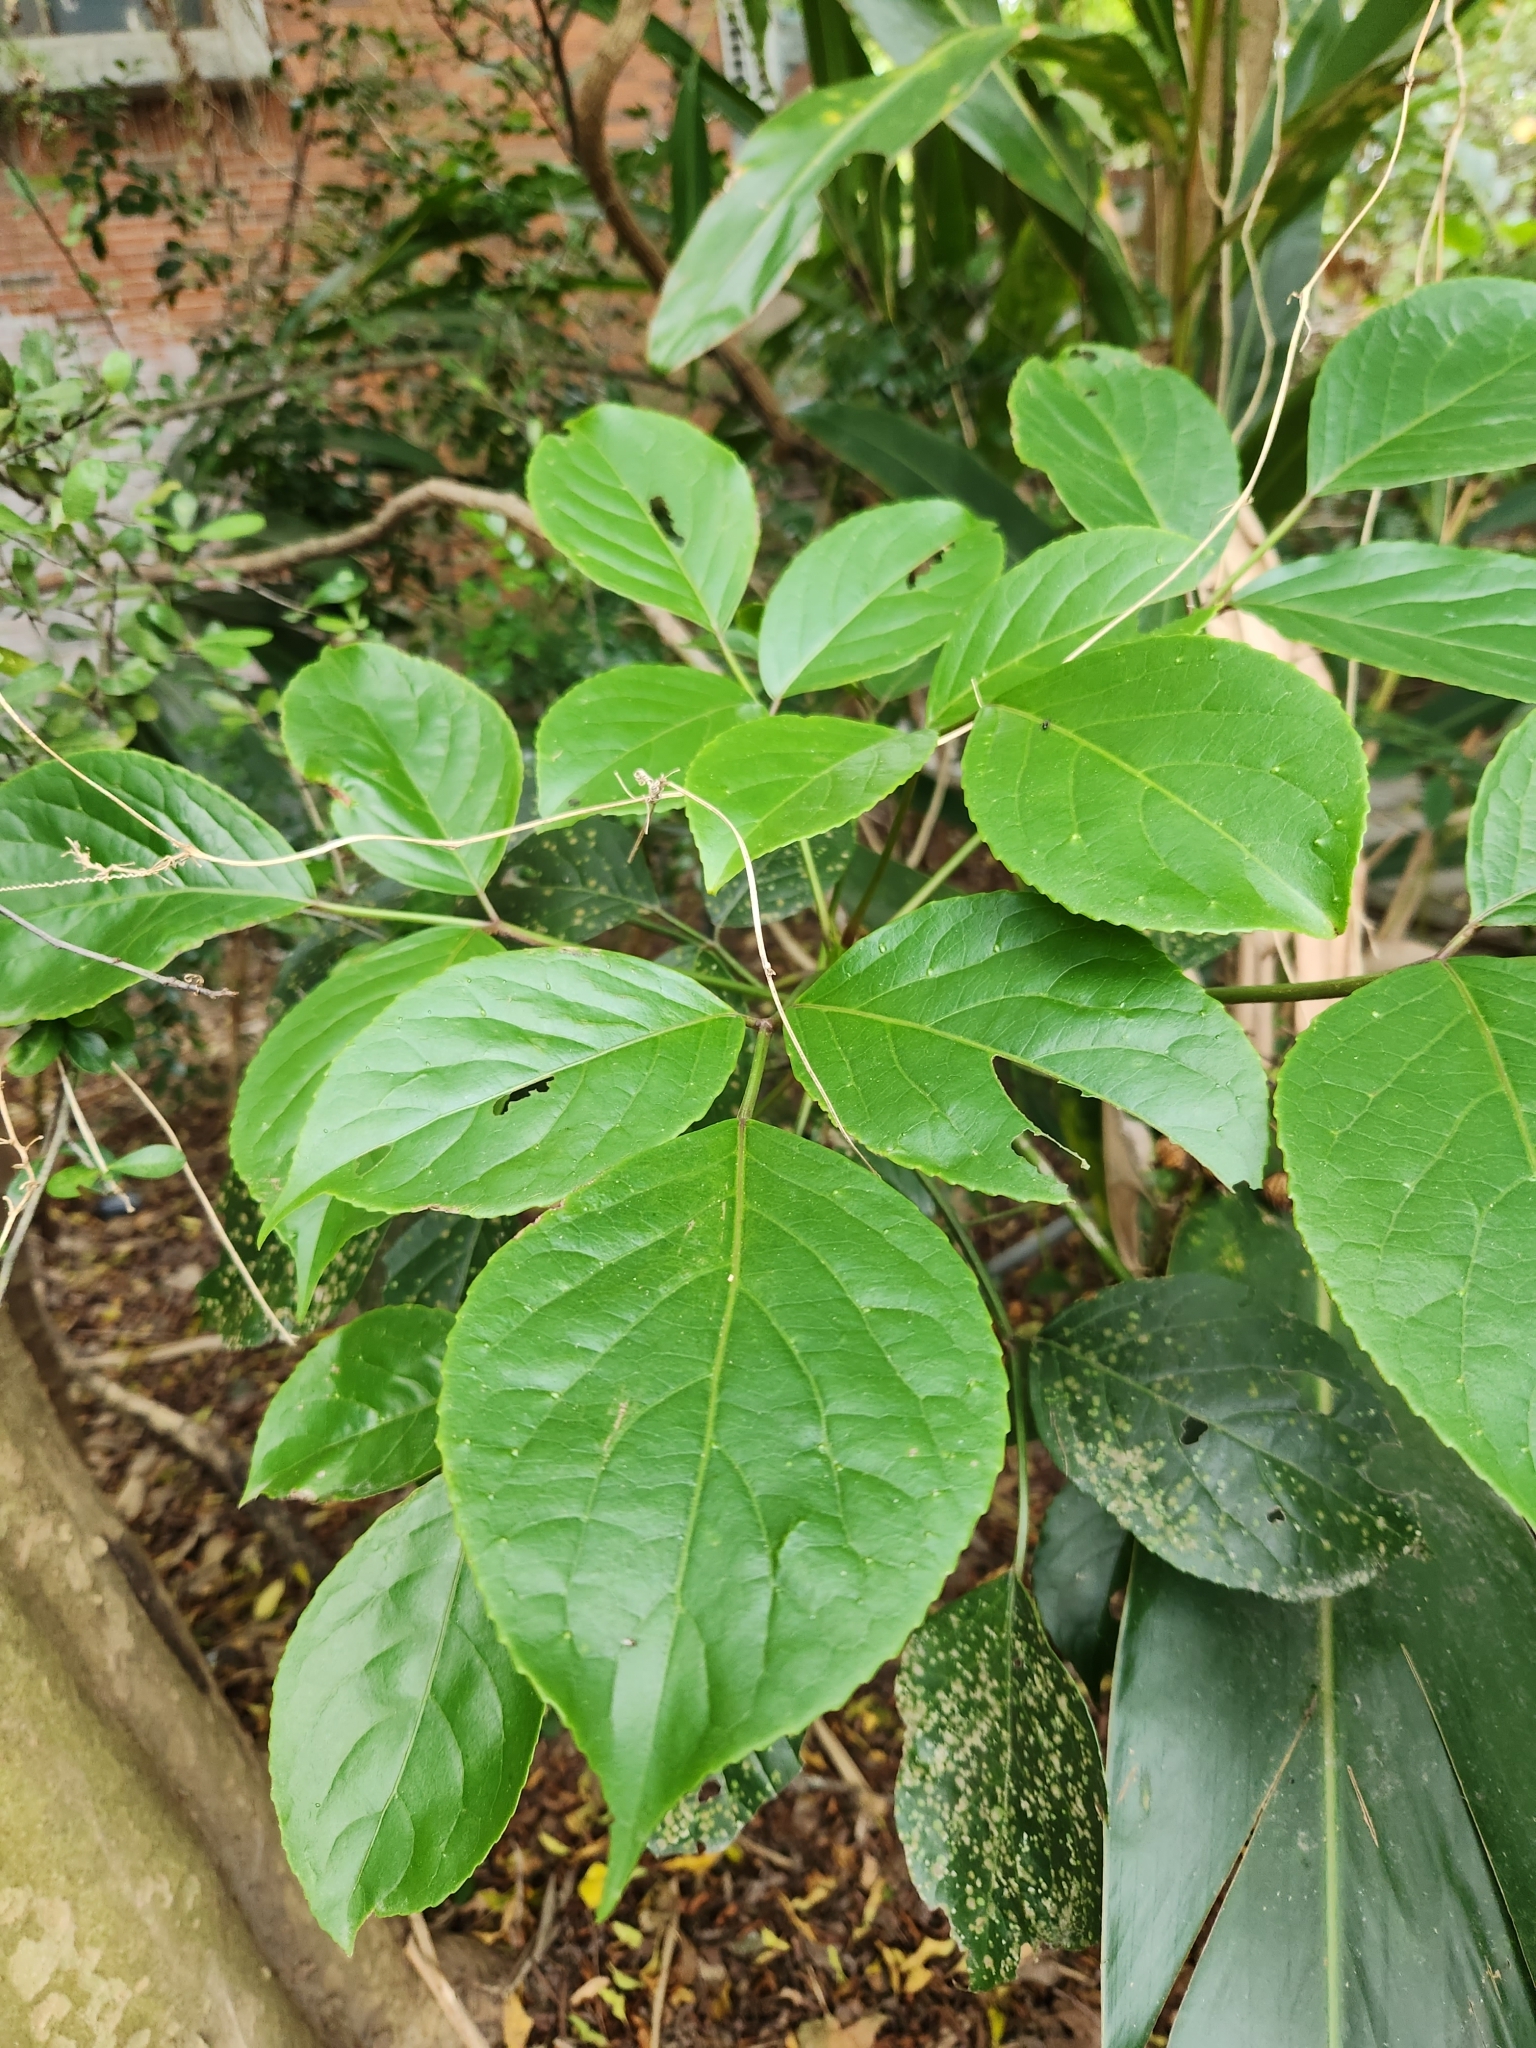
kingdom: Plantae
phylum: Tracheophyta
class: Magnoliopsida
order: Malpighiales
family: Phyllanthaceae
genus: Bischofia
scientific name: Bischofia javanica
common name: Javanese bishopwood
